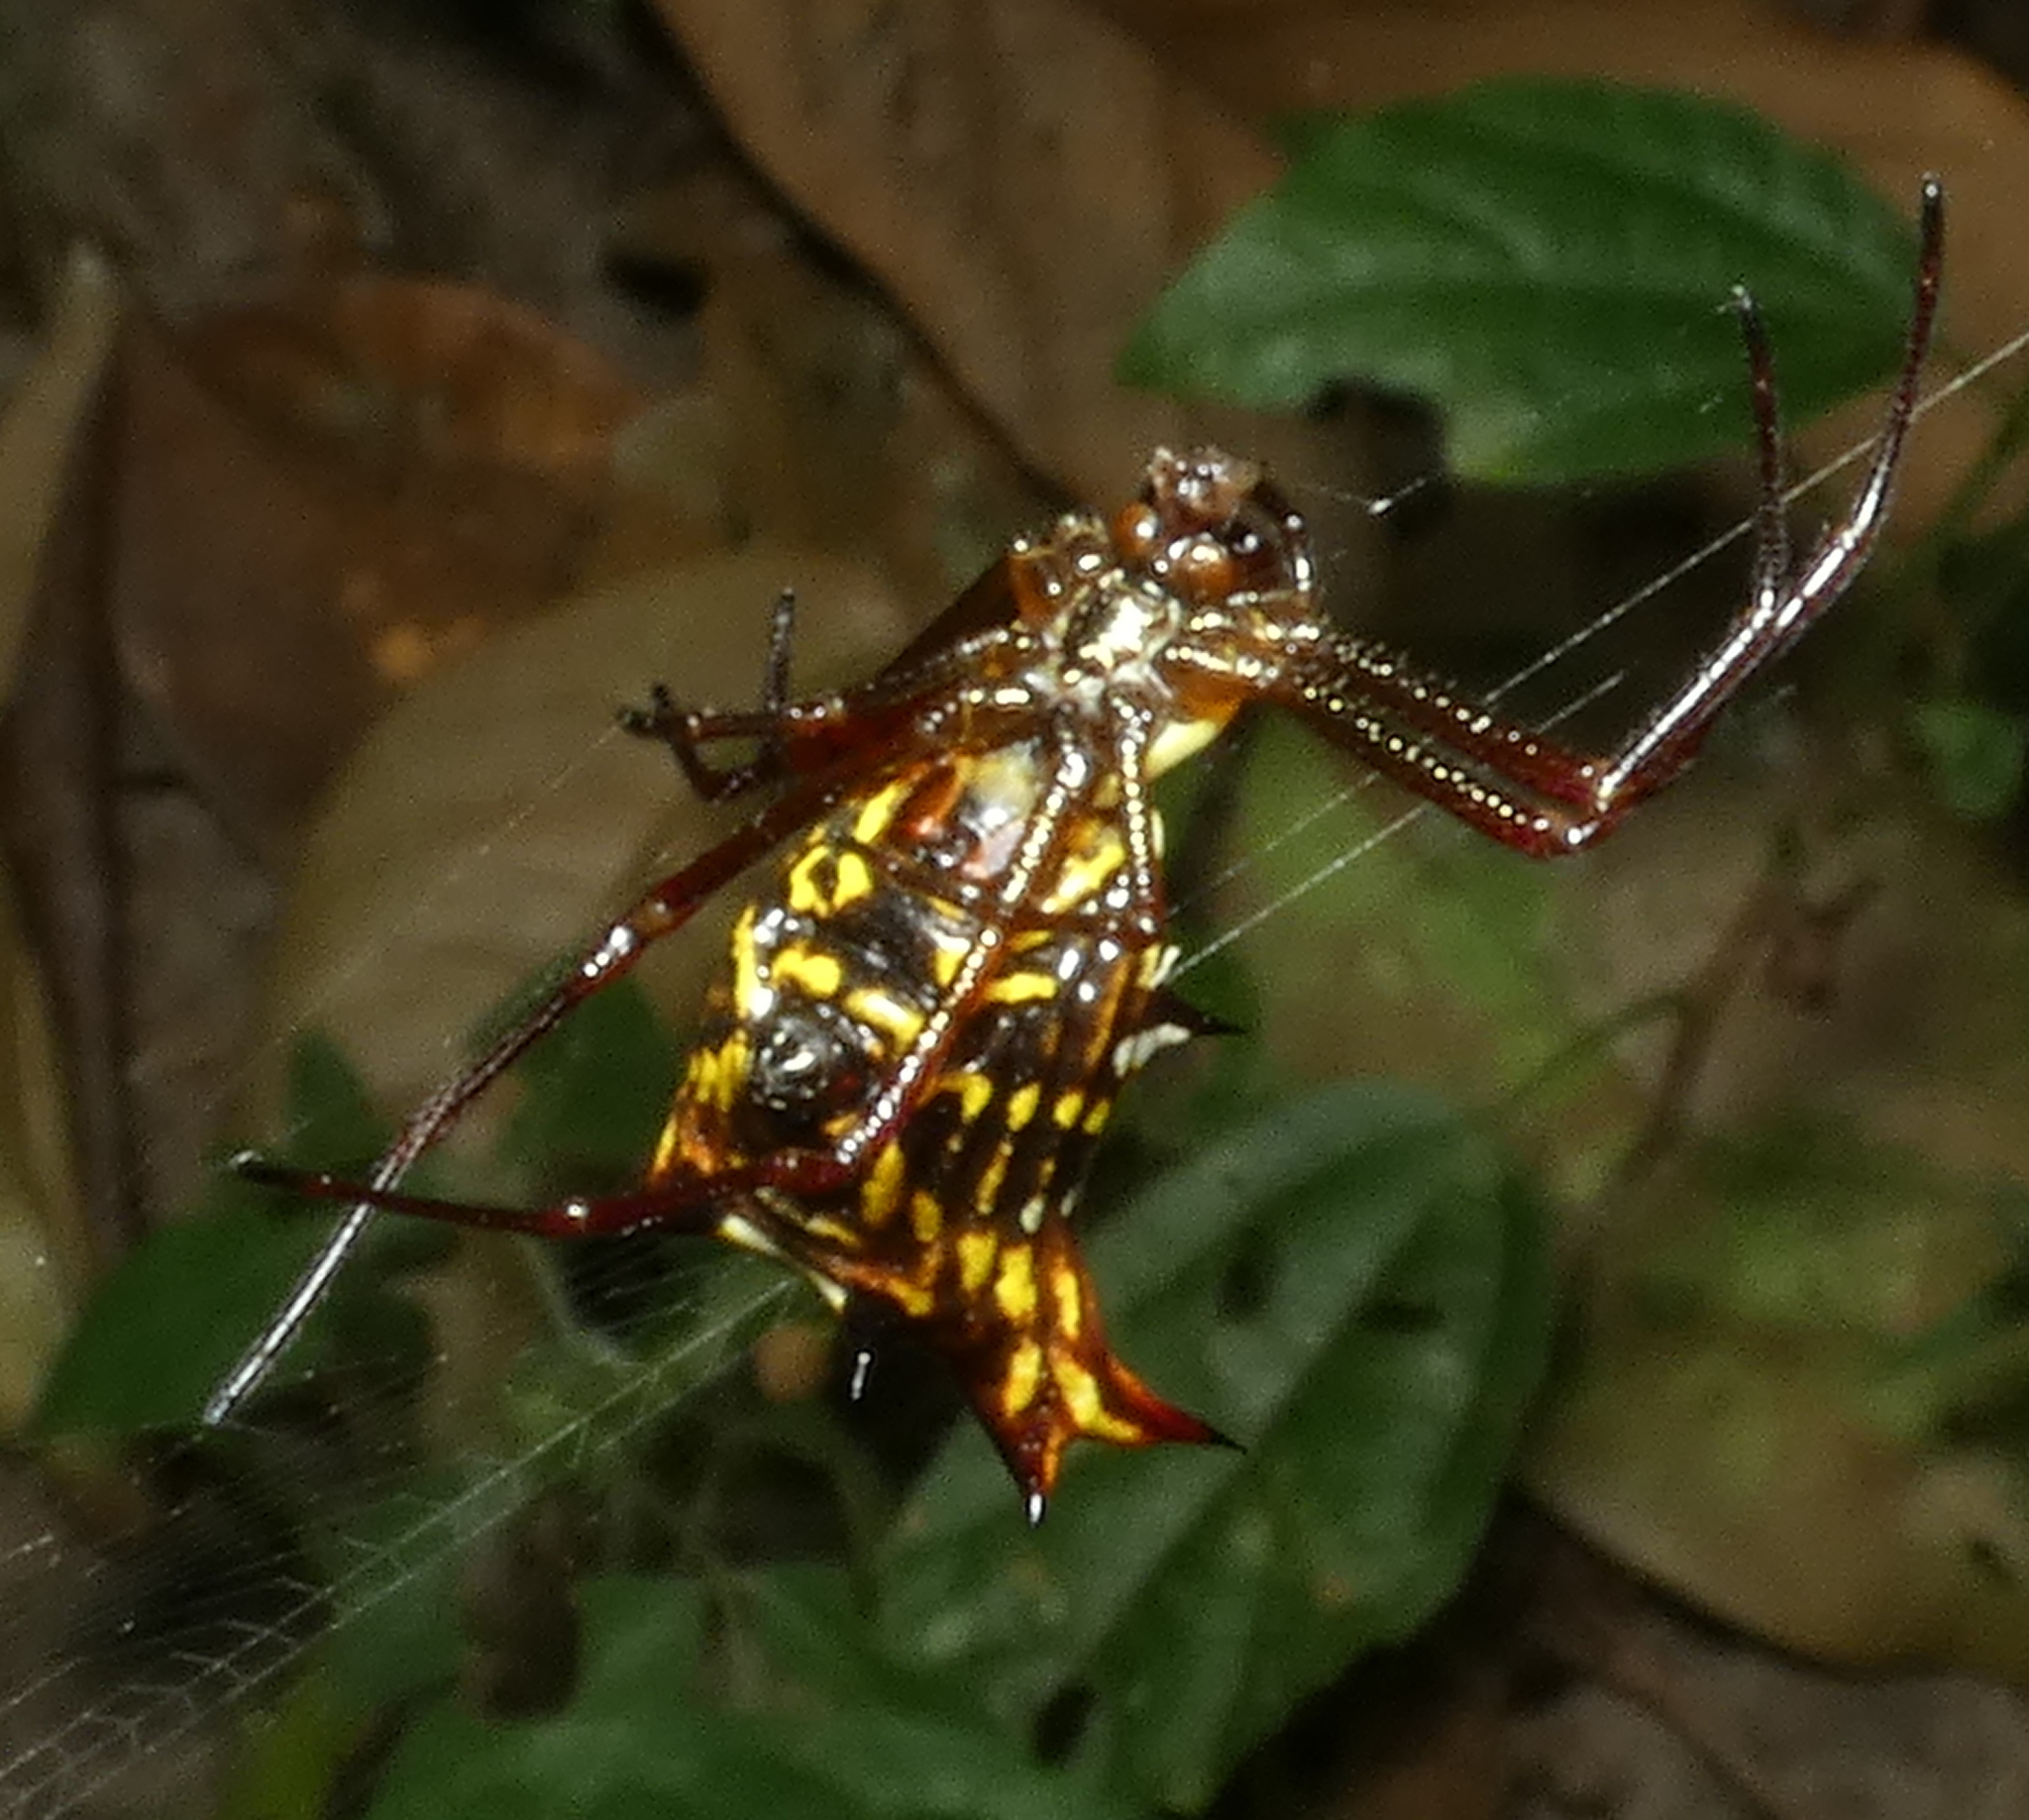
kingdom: Animalia
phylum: Arthropoda
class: Arachnida
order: Araneae
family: Araneidae
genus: Micrathena
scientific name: Micrathena fissispina
